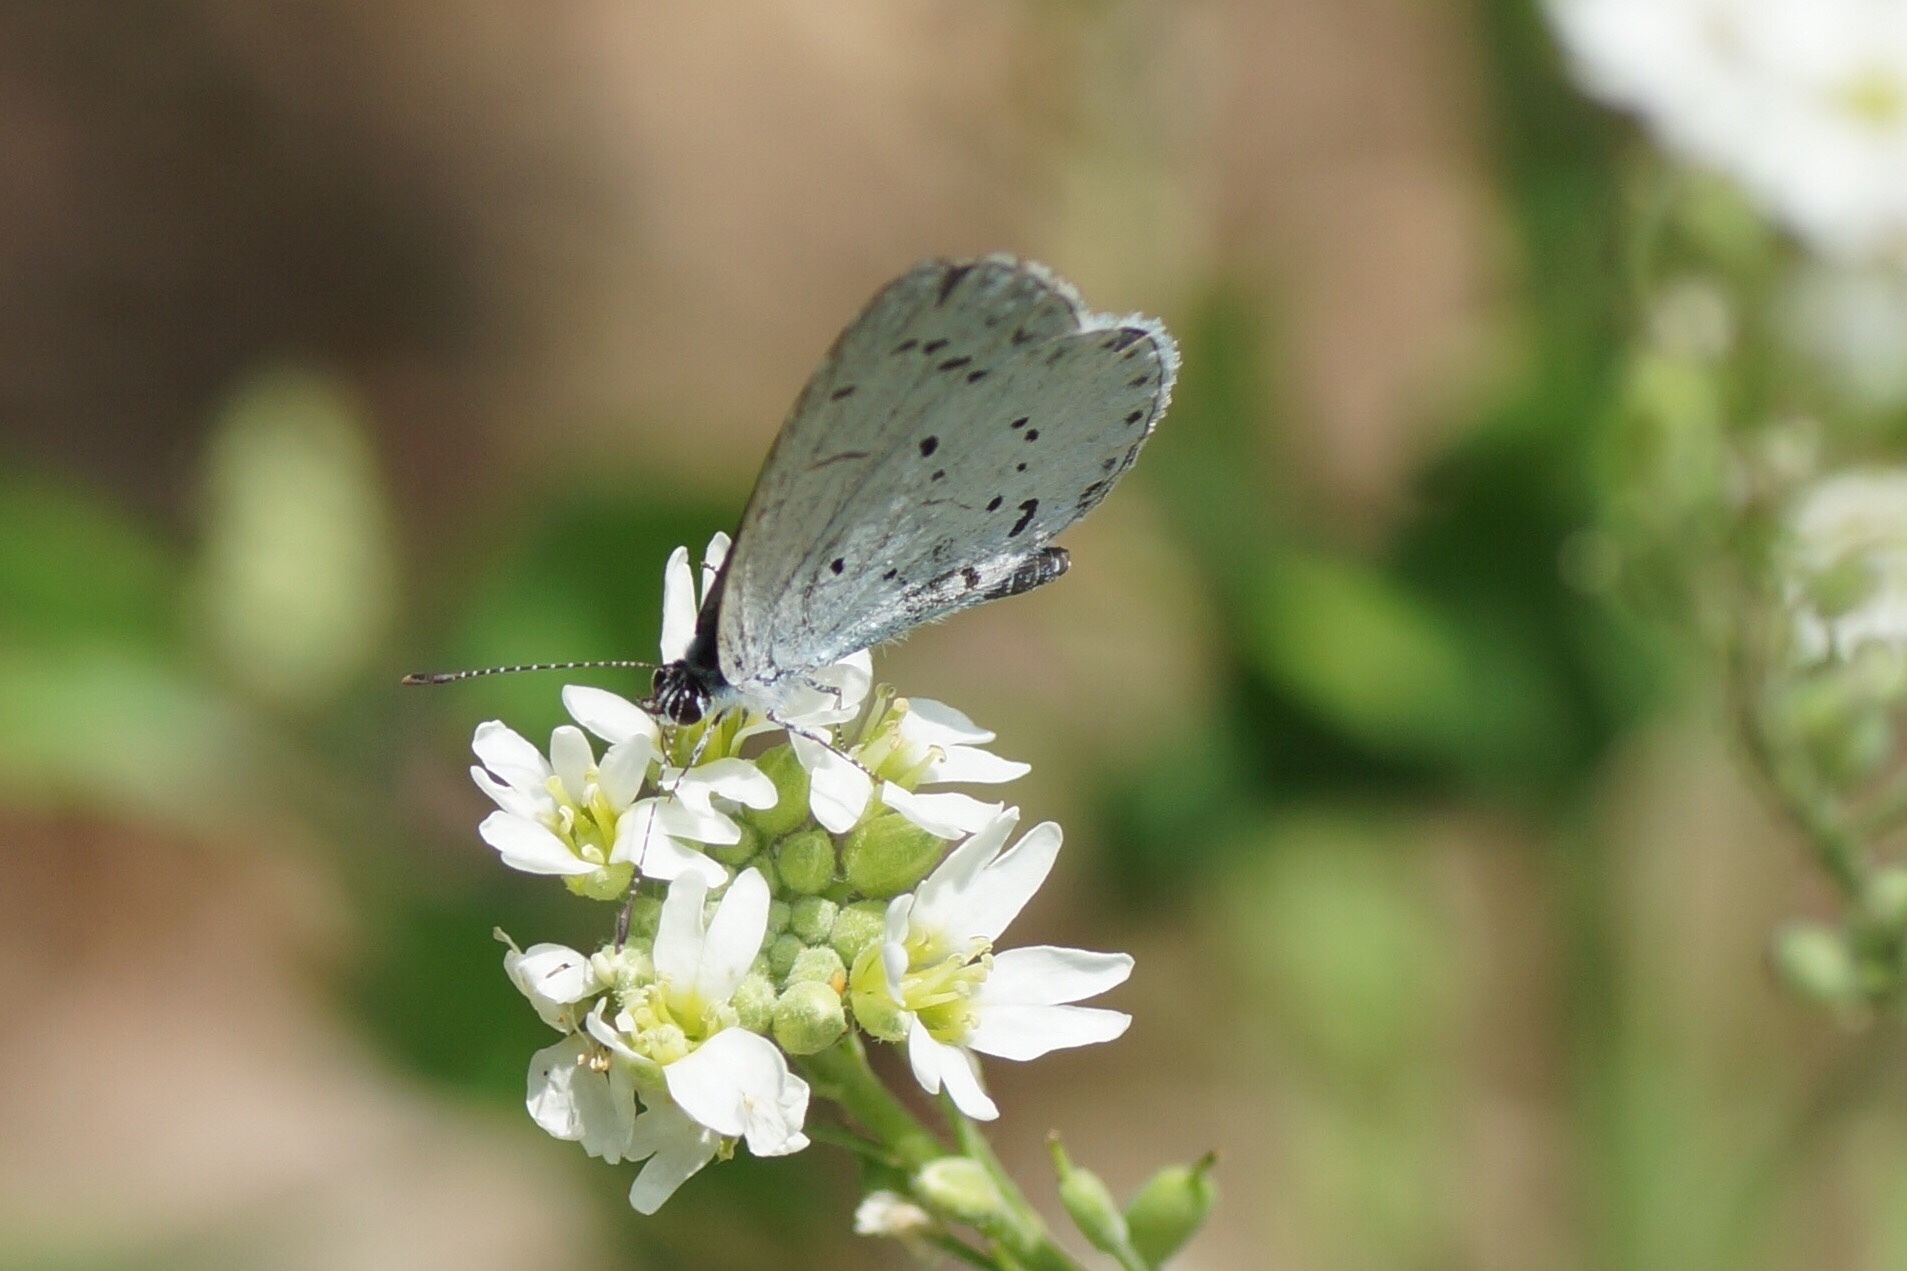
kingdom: Animalia
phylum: Arthropoda
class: Insecta
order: Lepidoptera
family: Lycaenidae
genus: Celastrina
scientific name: Celastrina argiolus
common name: Holly blue
